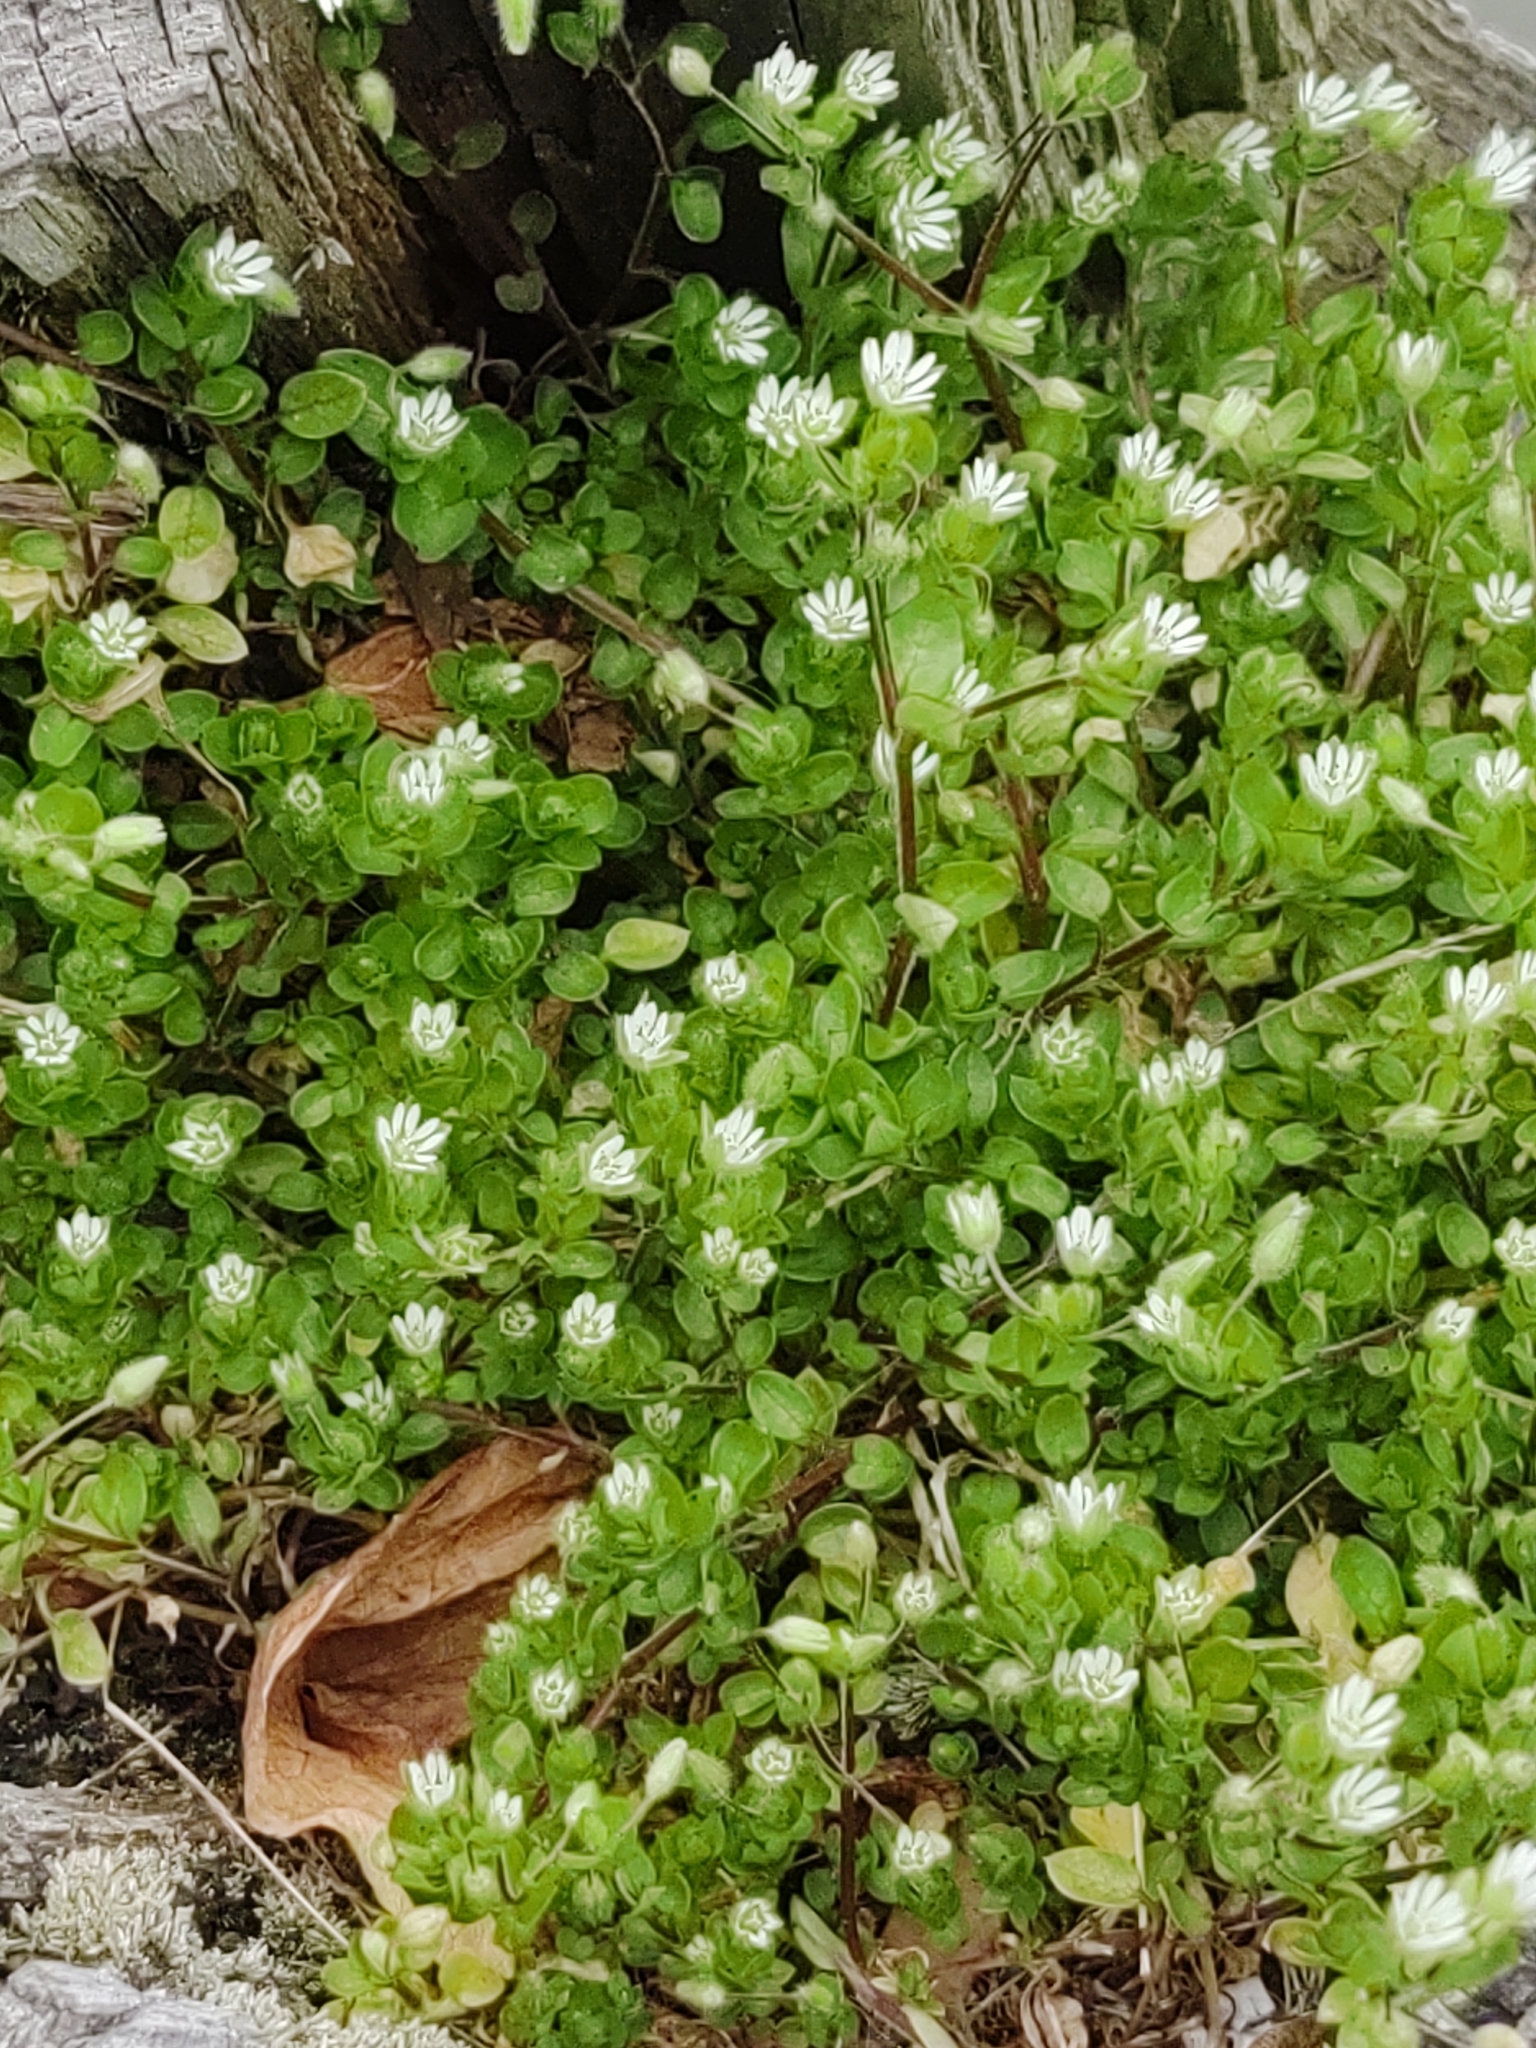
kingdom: Plantae
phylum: Tracheophyta
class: Magnoliopsida
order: Caryophyllales
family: Caryophyllaceae
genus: Stellaria
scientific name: Stellaria media
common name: Common chickweed
